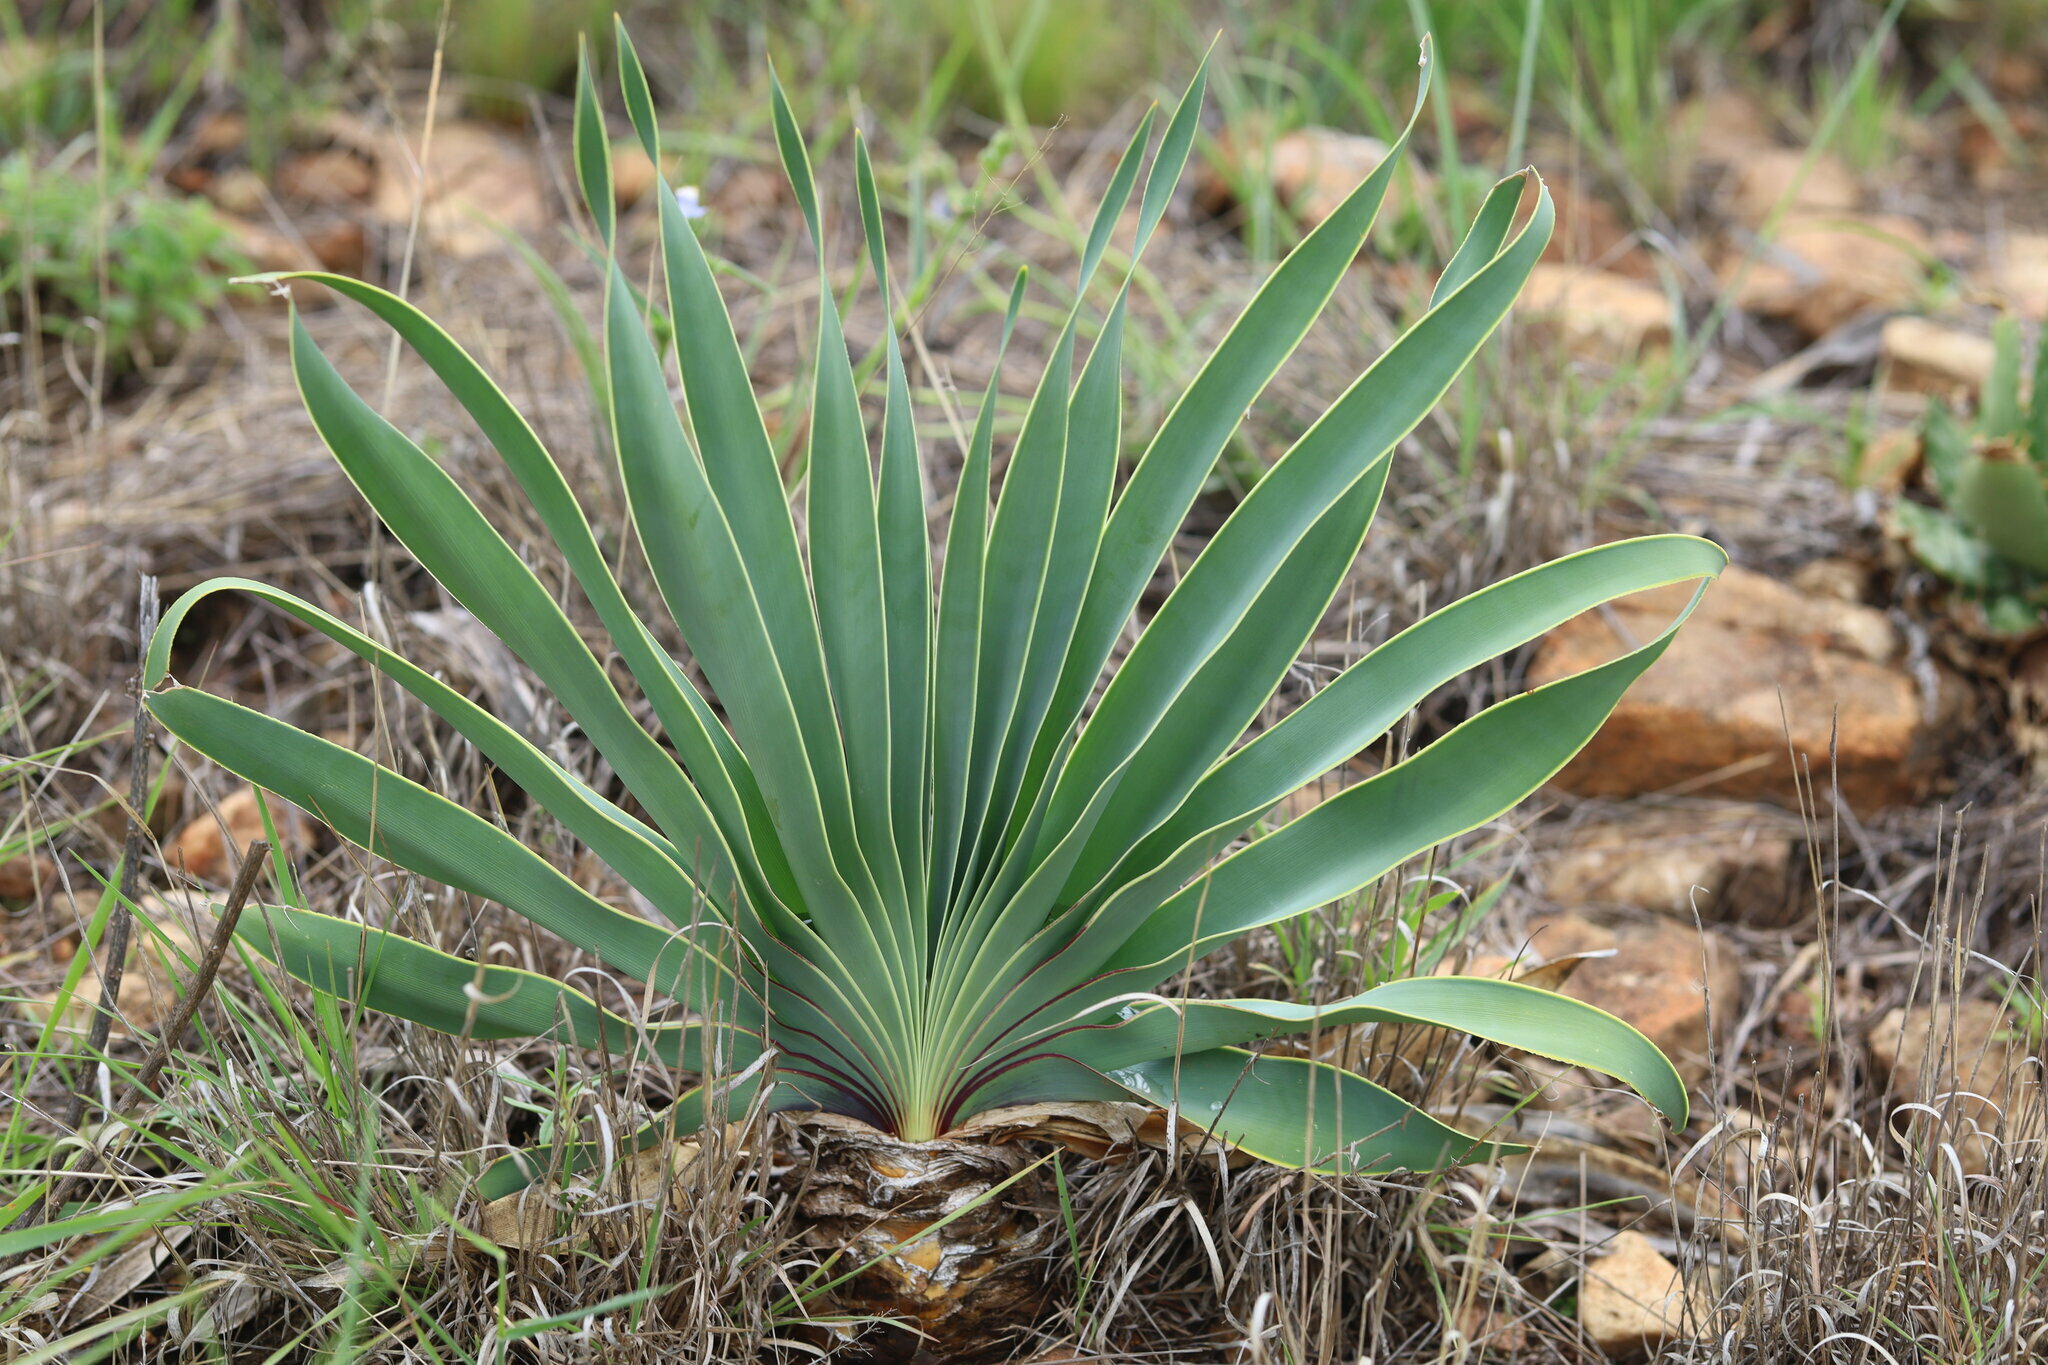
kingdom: Plantae
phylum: Tracheophyta
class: Liliopsida
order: Asparagales
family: Amaryllidaceae
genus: Boophone
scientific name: Boophone disticha
